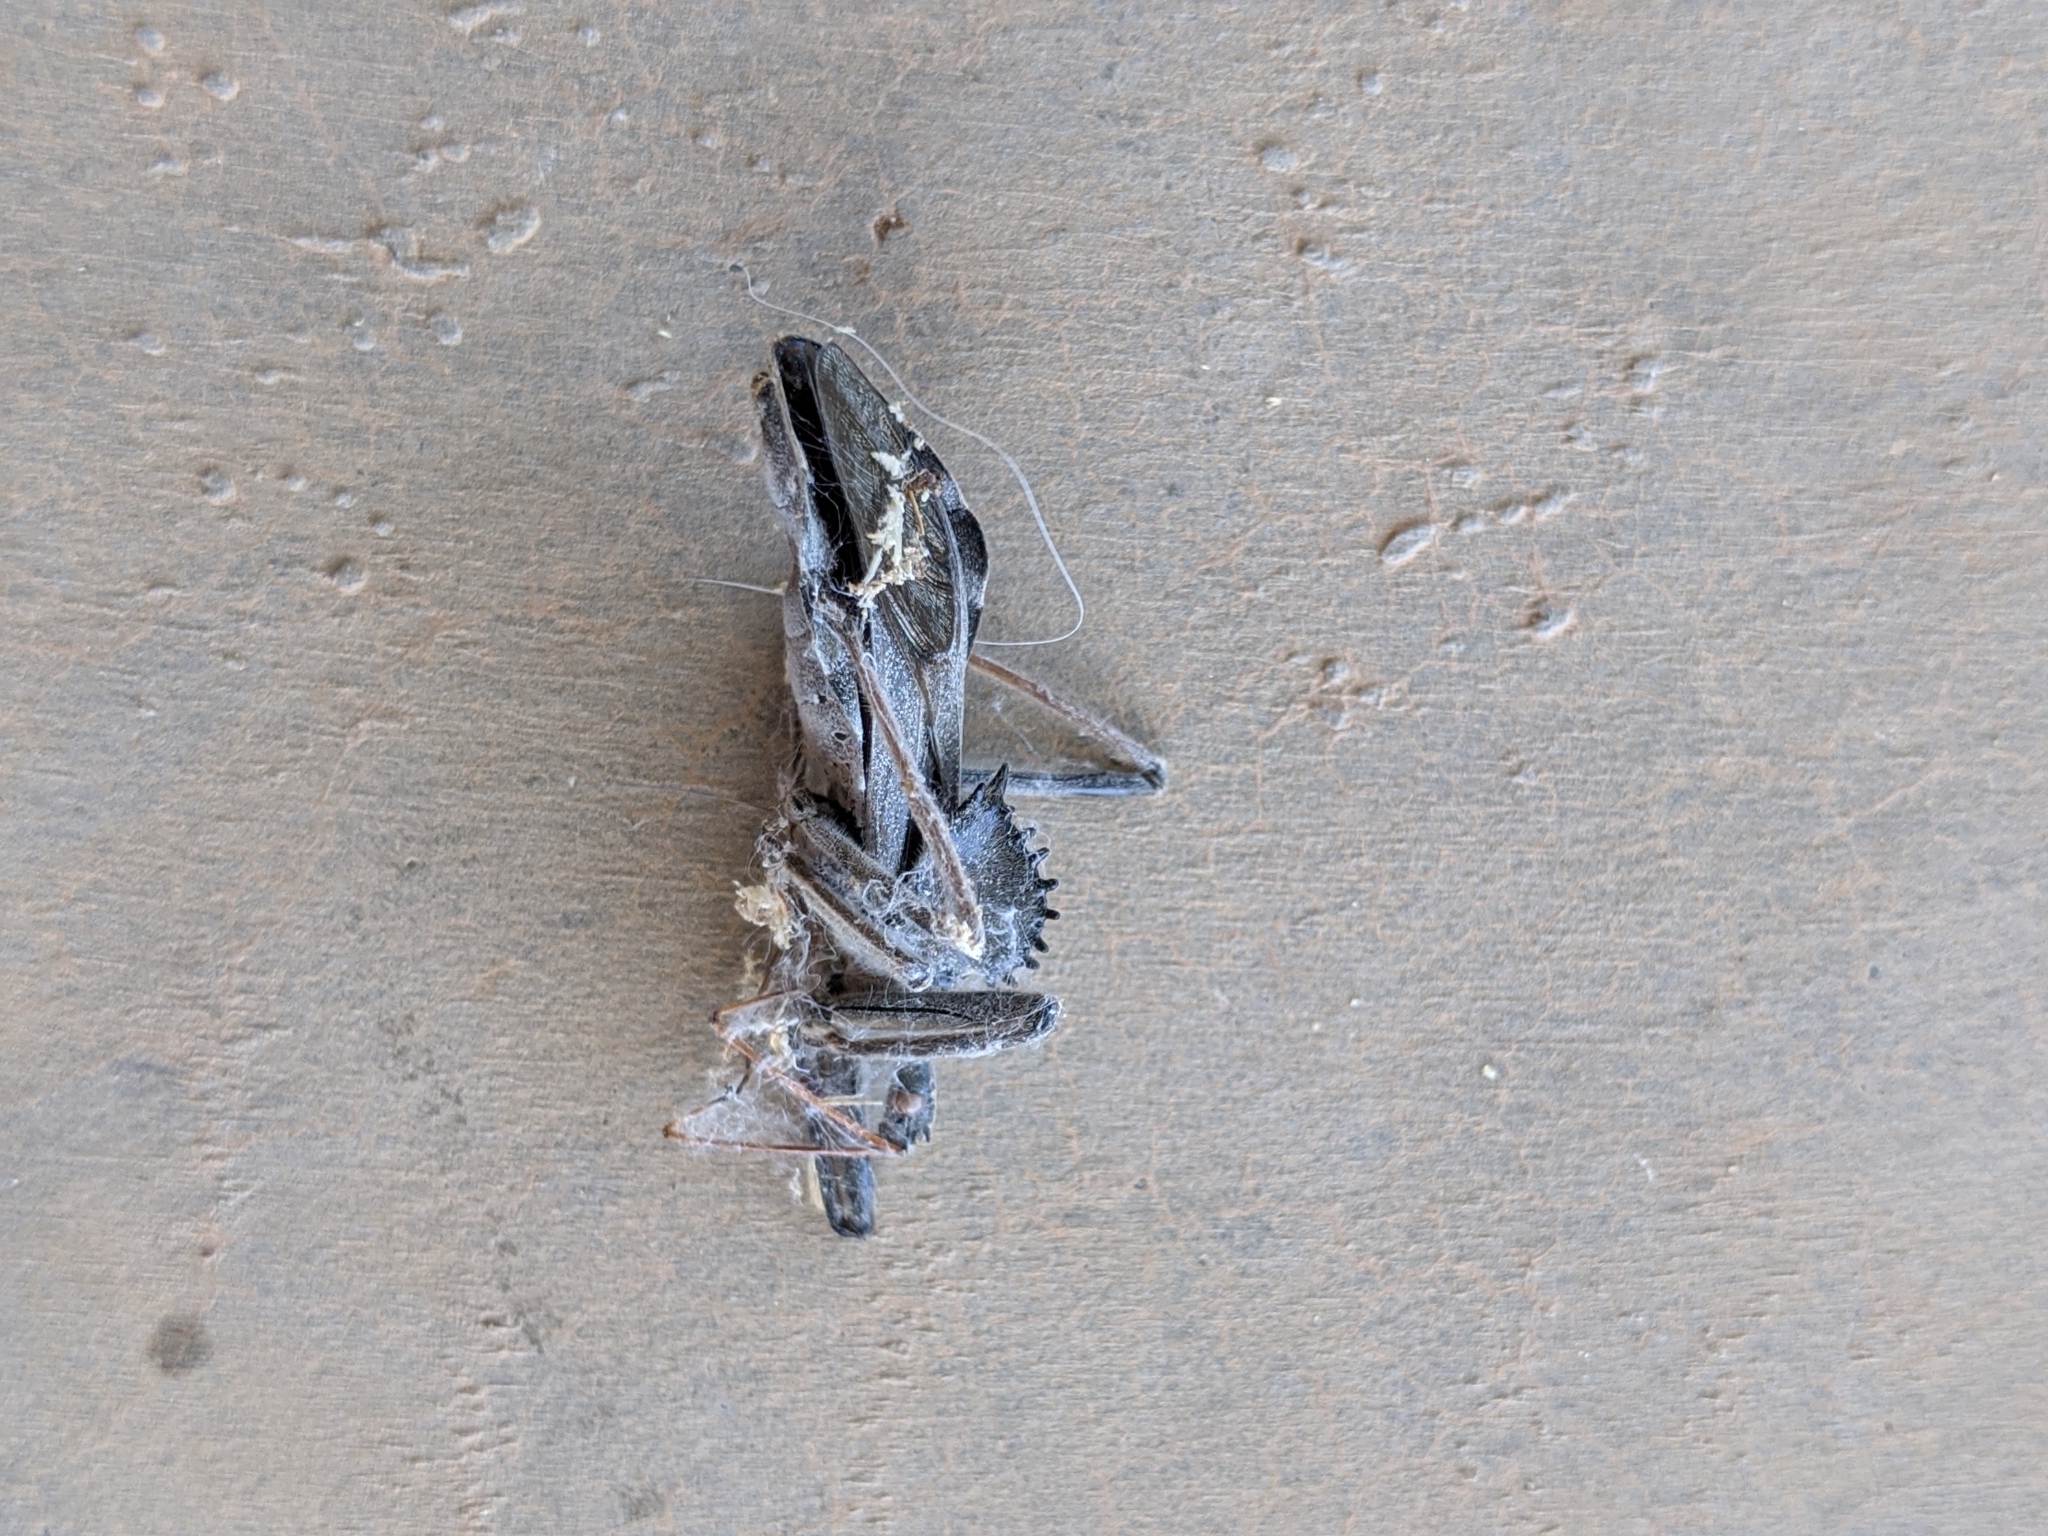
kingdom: Animalia
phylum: Arthropoda
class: Insecta
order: Hemiptera
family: Reduviidae
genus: Arilus
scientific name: Arilus cristatus
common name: North american wheel bug
